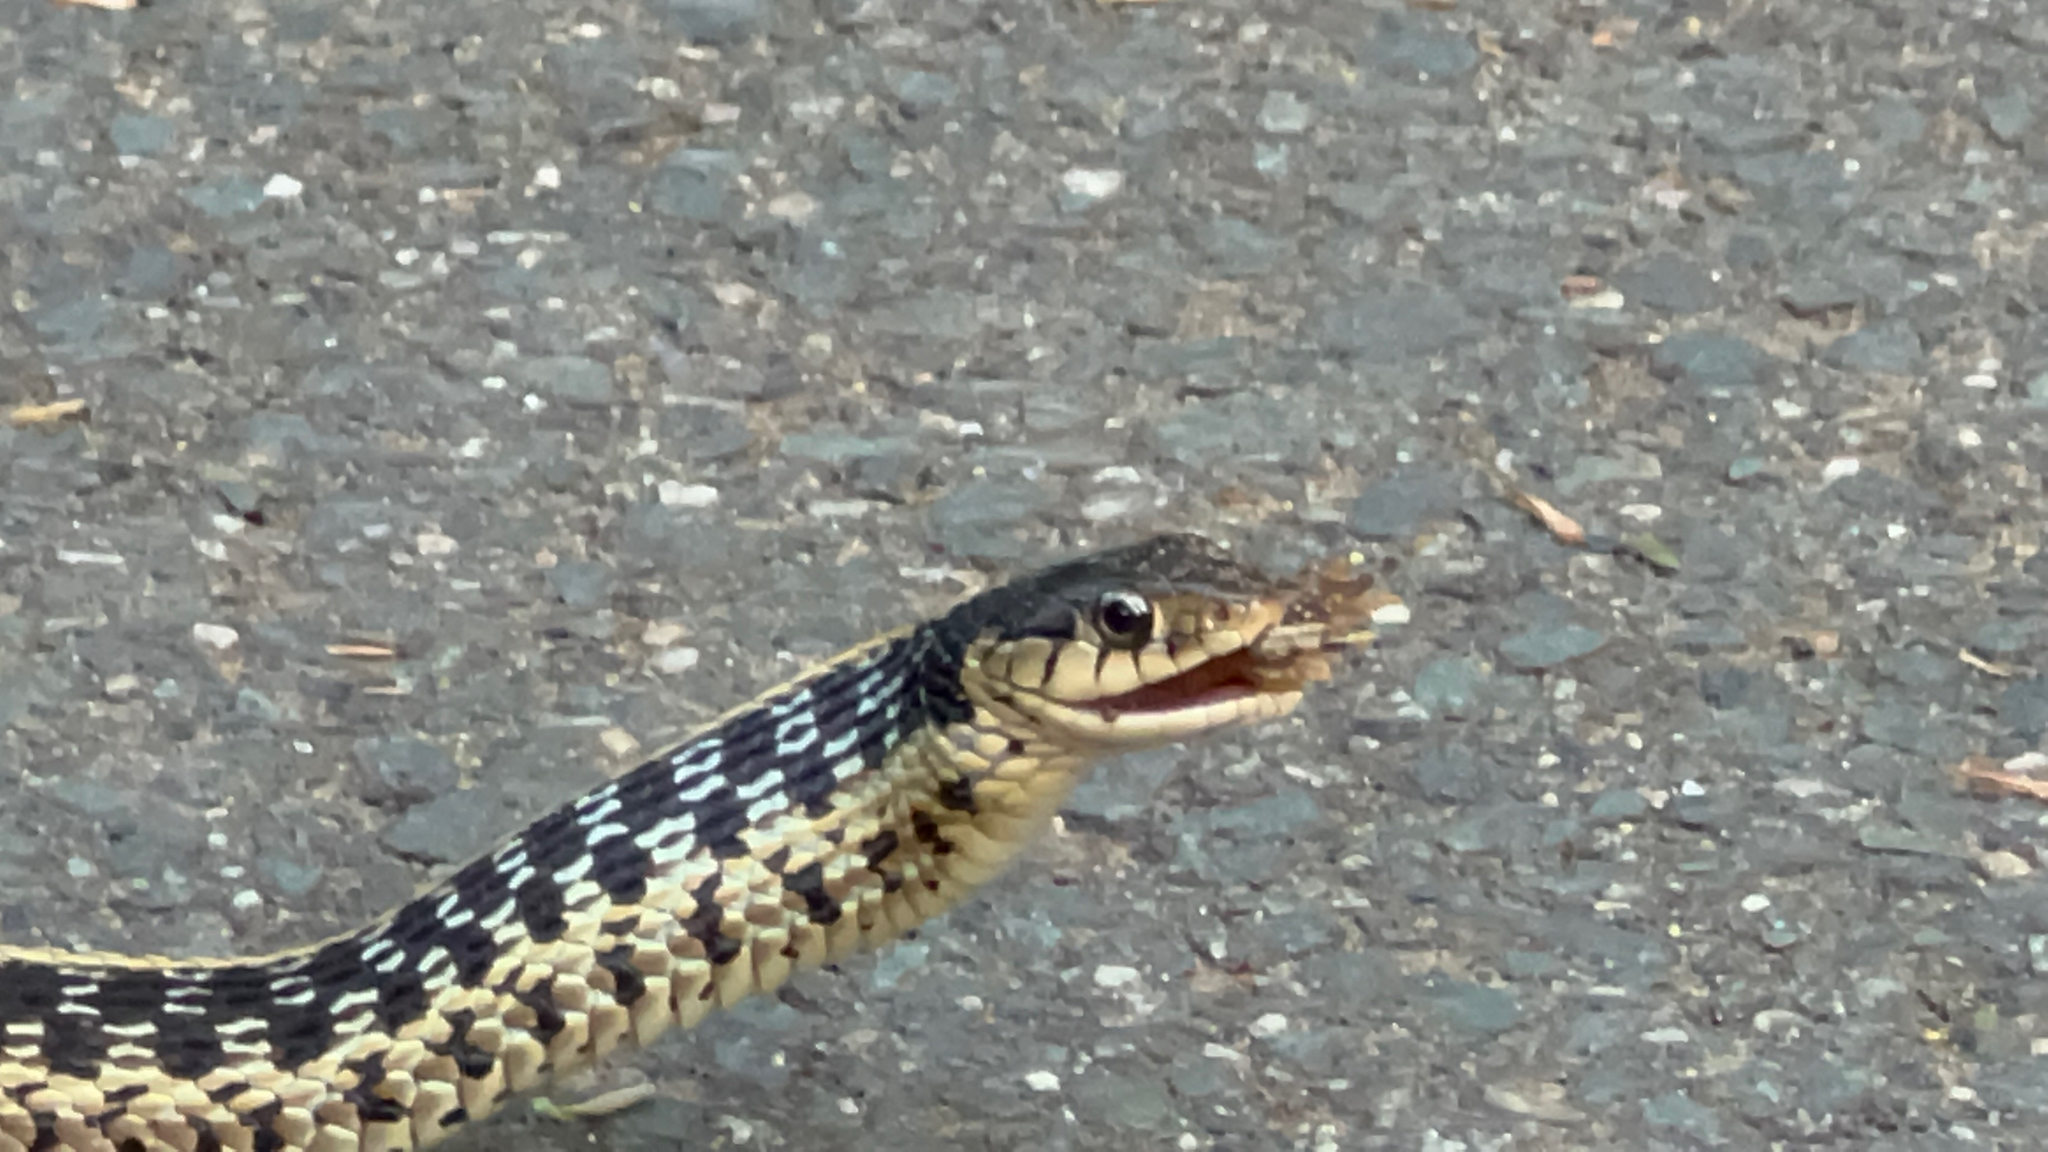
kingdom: Animalia
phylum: Chordata
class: Squamata
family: Colubridae
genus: Thamnophis
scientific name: Thamnophis sirtalis
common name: Common garter snake
